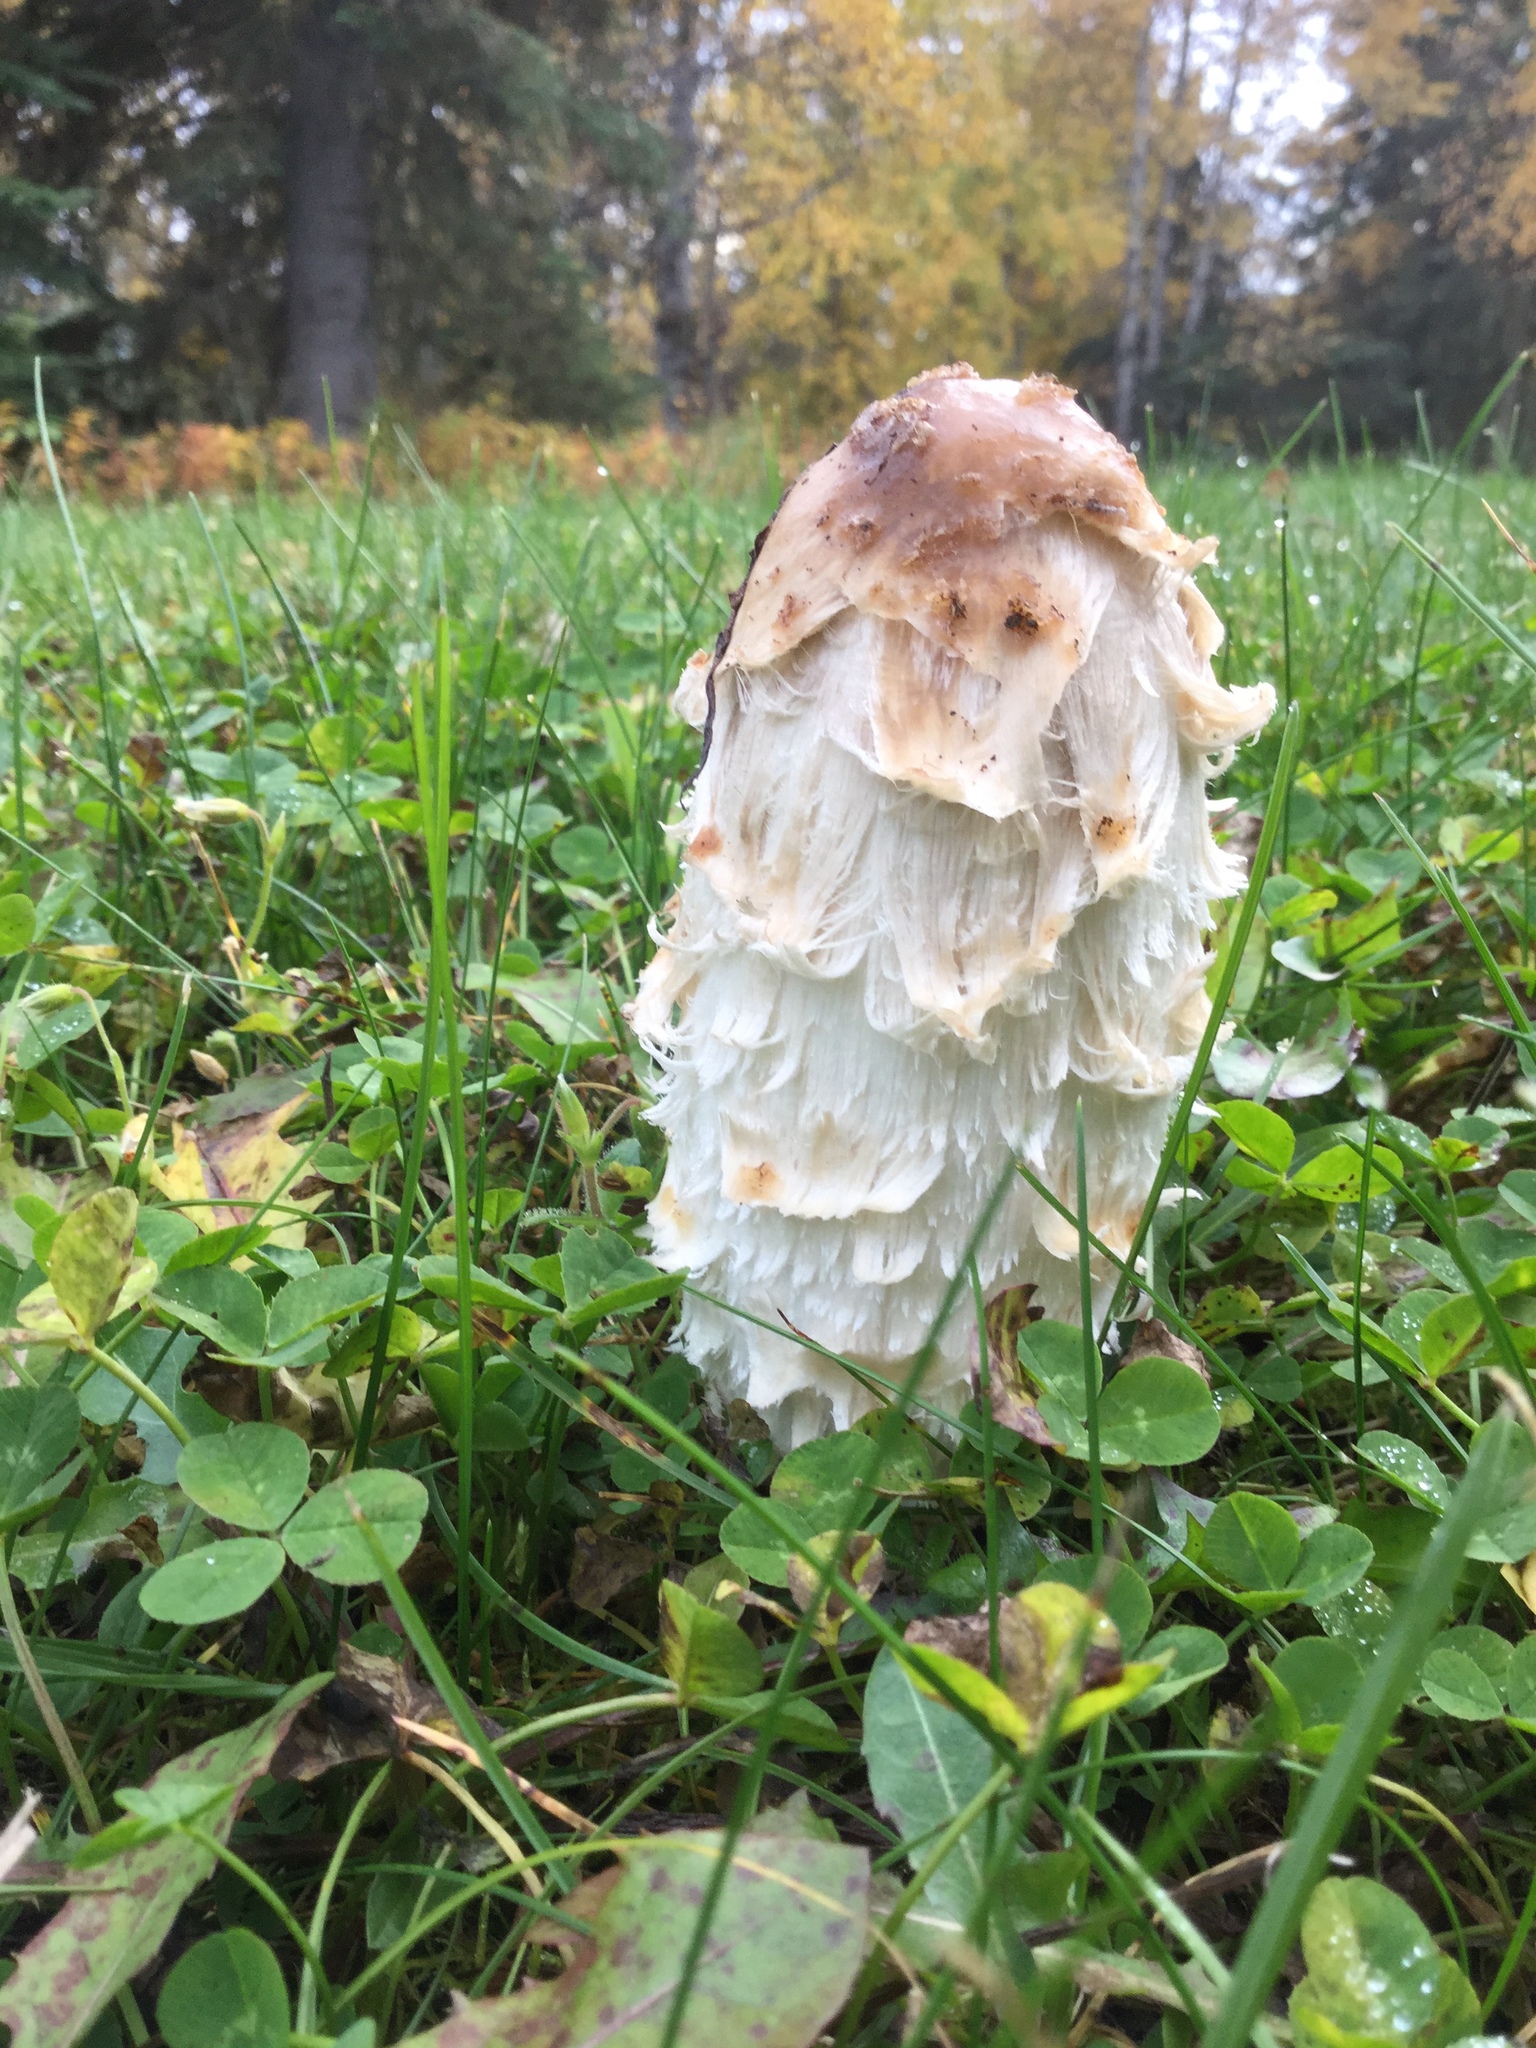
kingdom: Fungi
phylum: Basidiomycota
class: Agaricomycetes
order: Agaricales
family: Agaricaceae
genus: Coprinus
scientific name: Coprinus comatus
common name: Lawyer's wig
